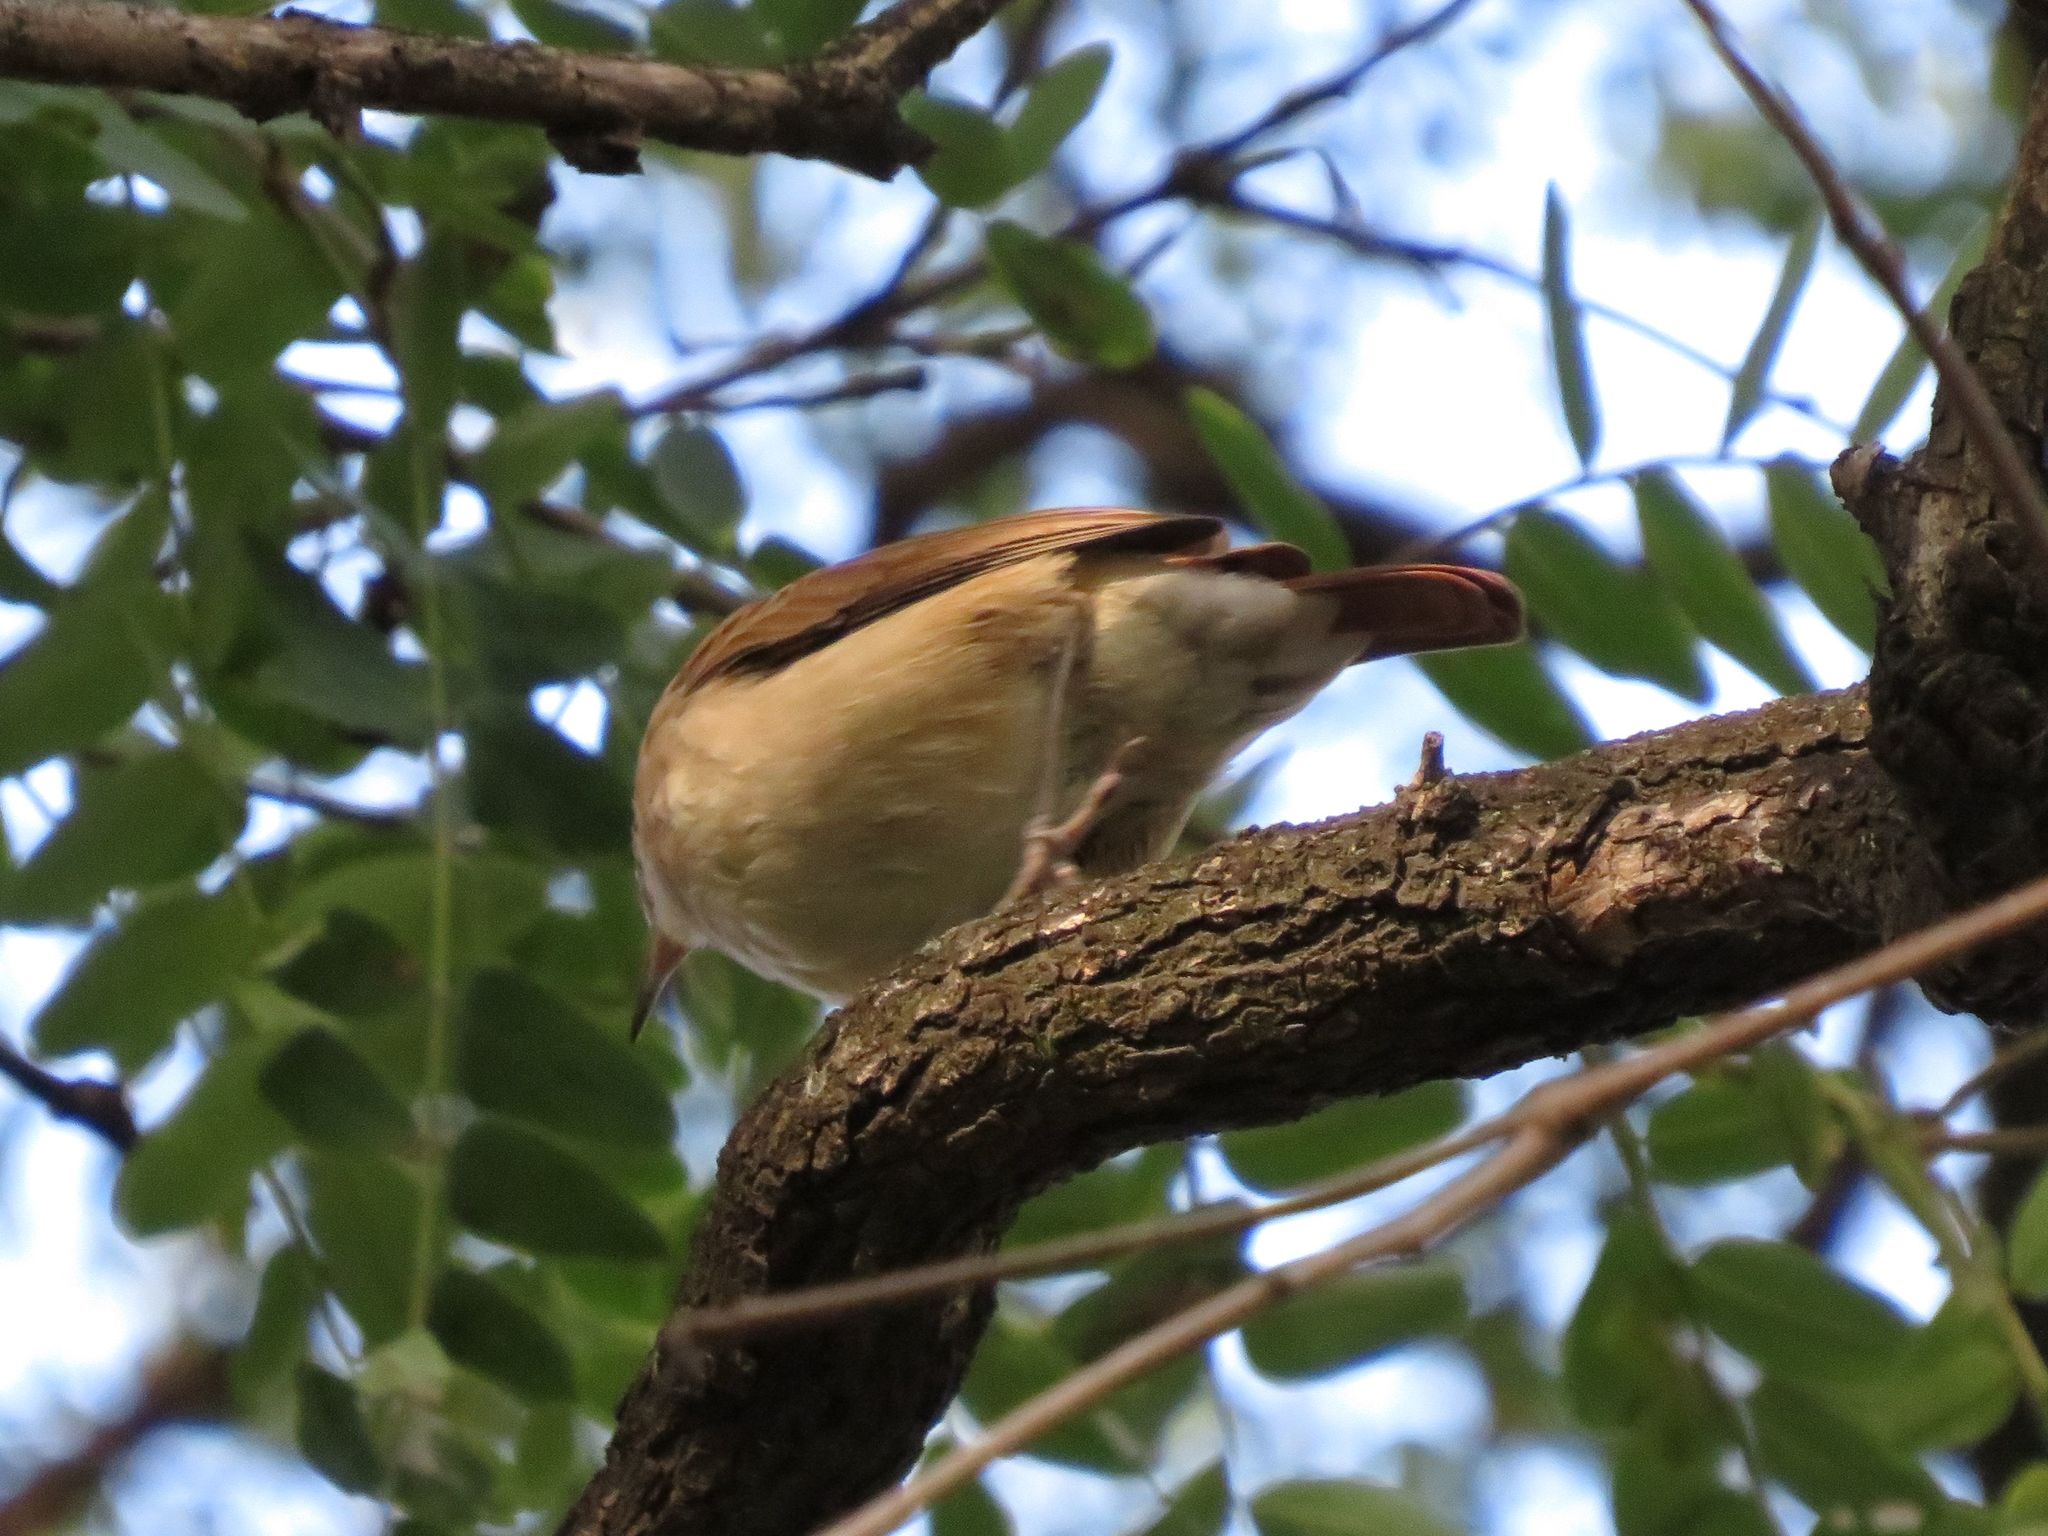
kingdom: Animalia
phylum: Chordata
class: Aves
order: Passeriformes
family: Furnariidae
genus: Furnarius
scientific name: Furnarius rufus
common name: Rufous hornero
